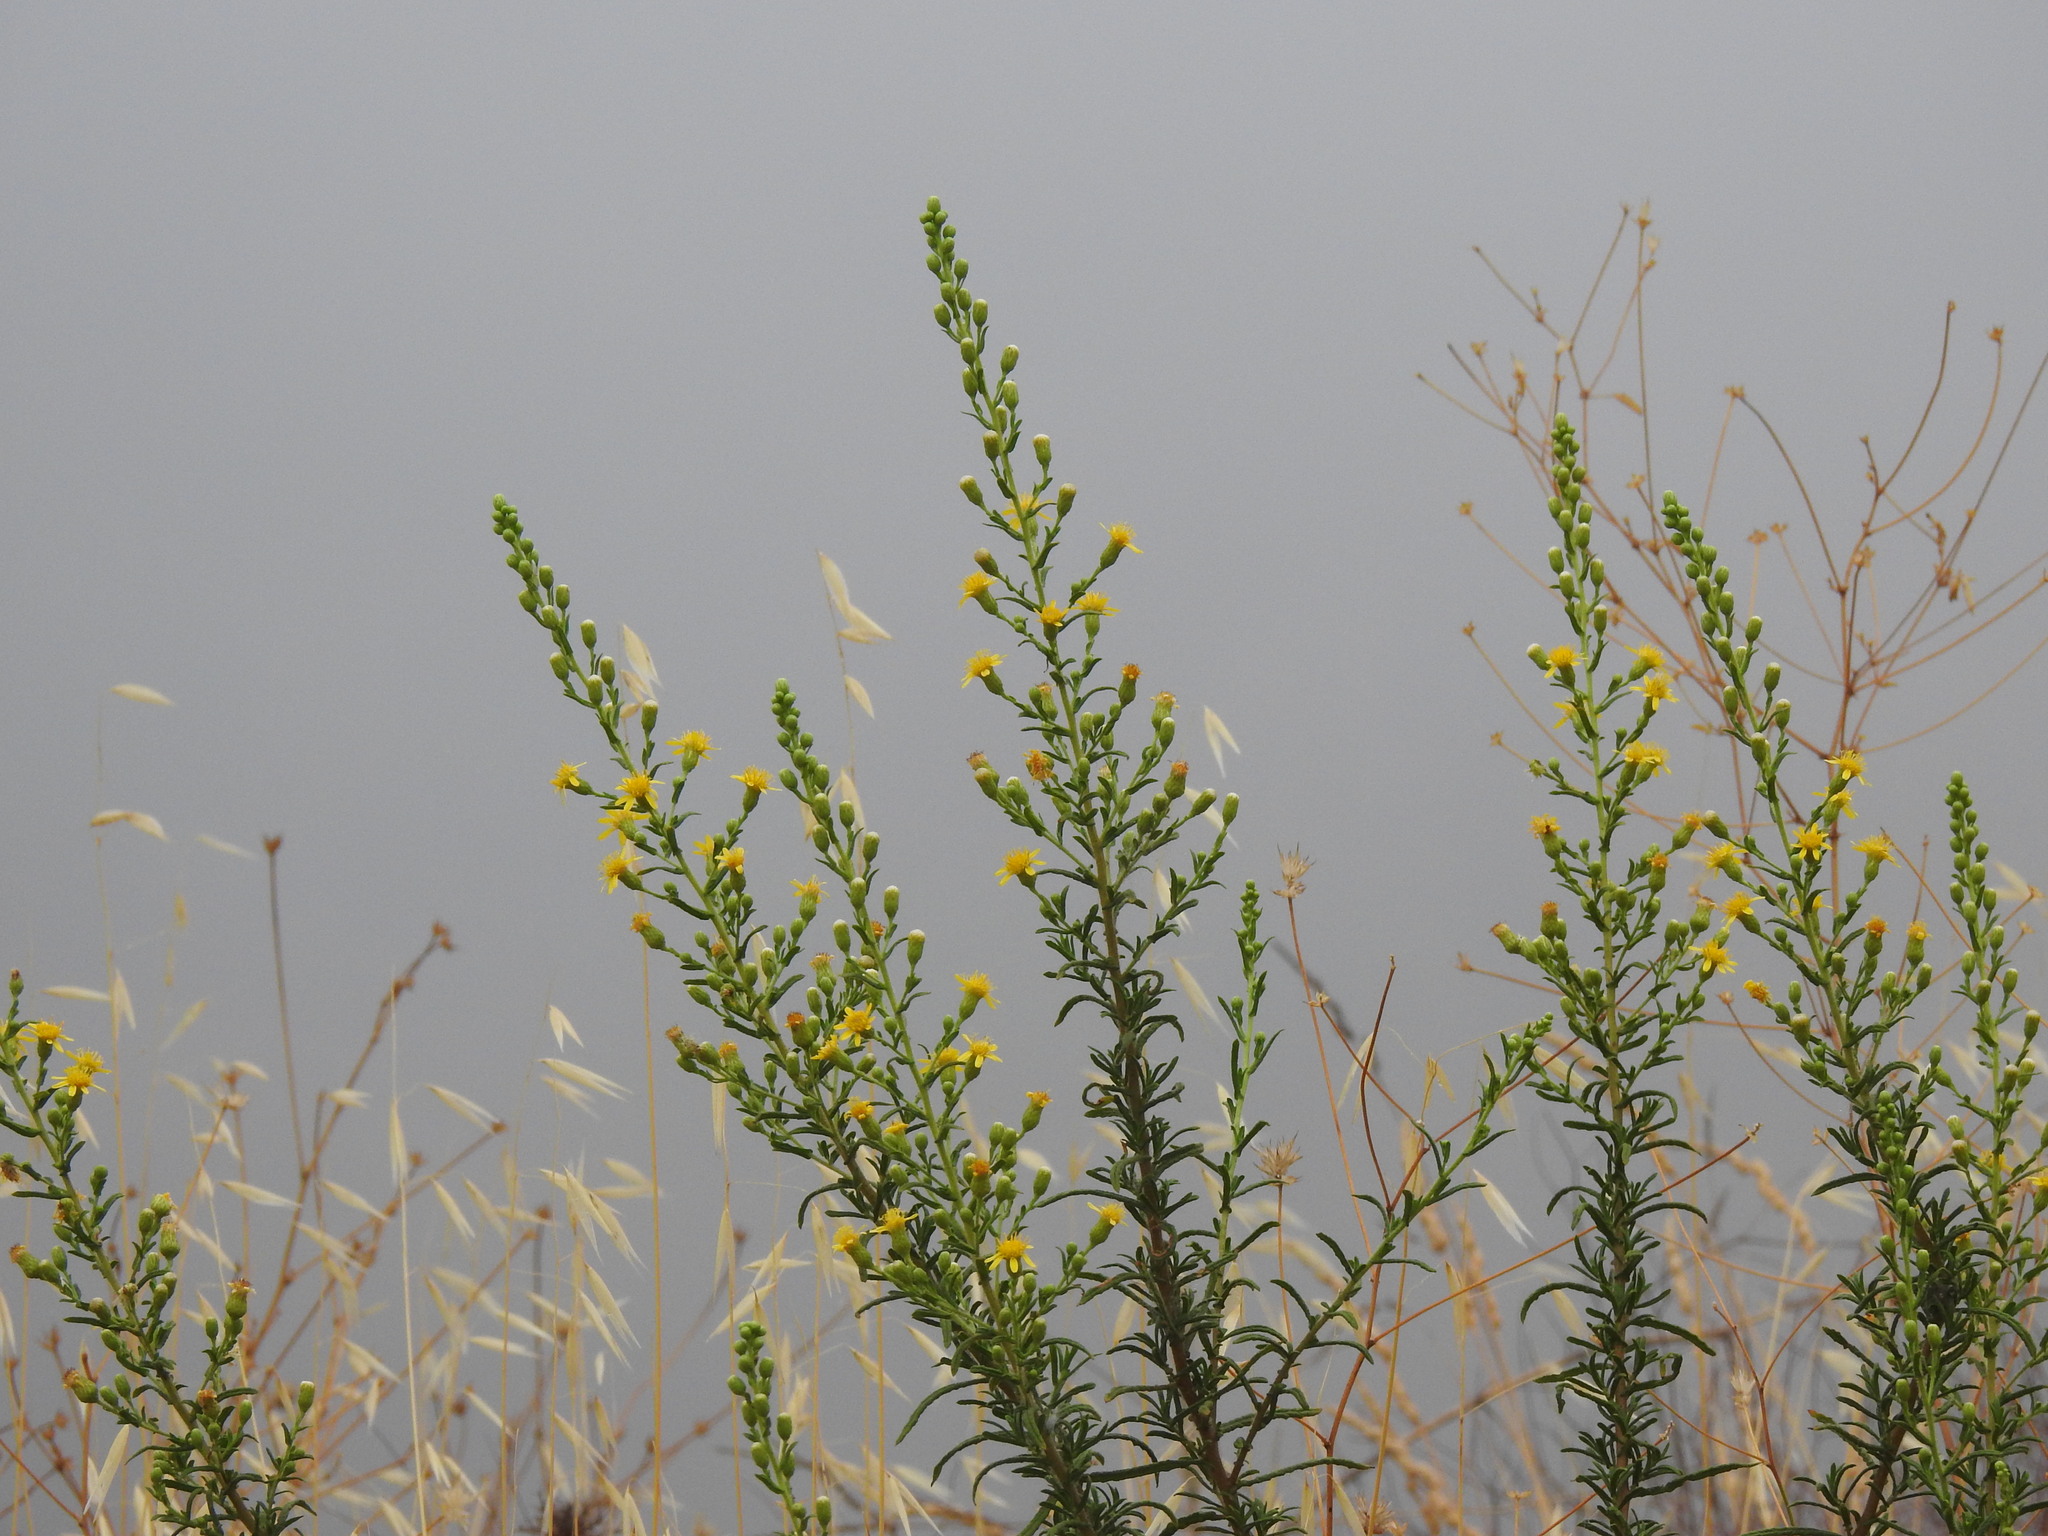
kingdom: Plantae
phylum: Tracheophyta
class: Magnoliopsida
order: Asterales
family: Asteraceae
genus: Dittrichia
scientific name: Dittrichia viscosa
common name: Woody fleabane
